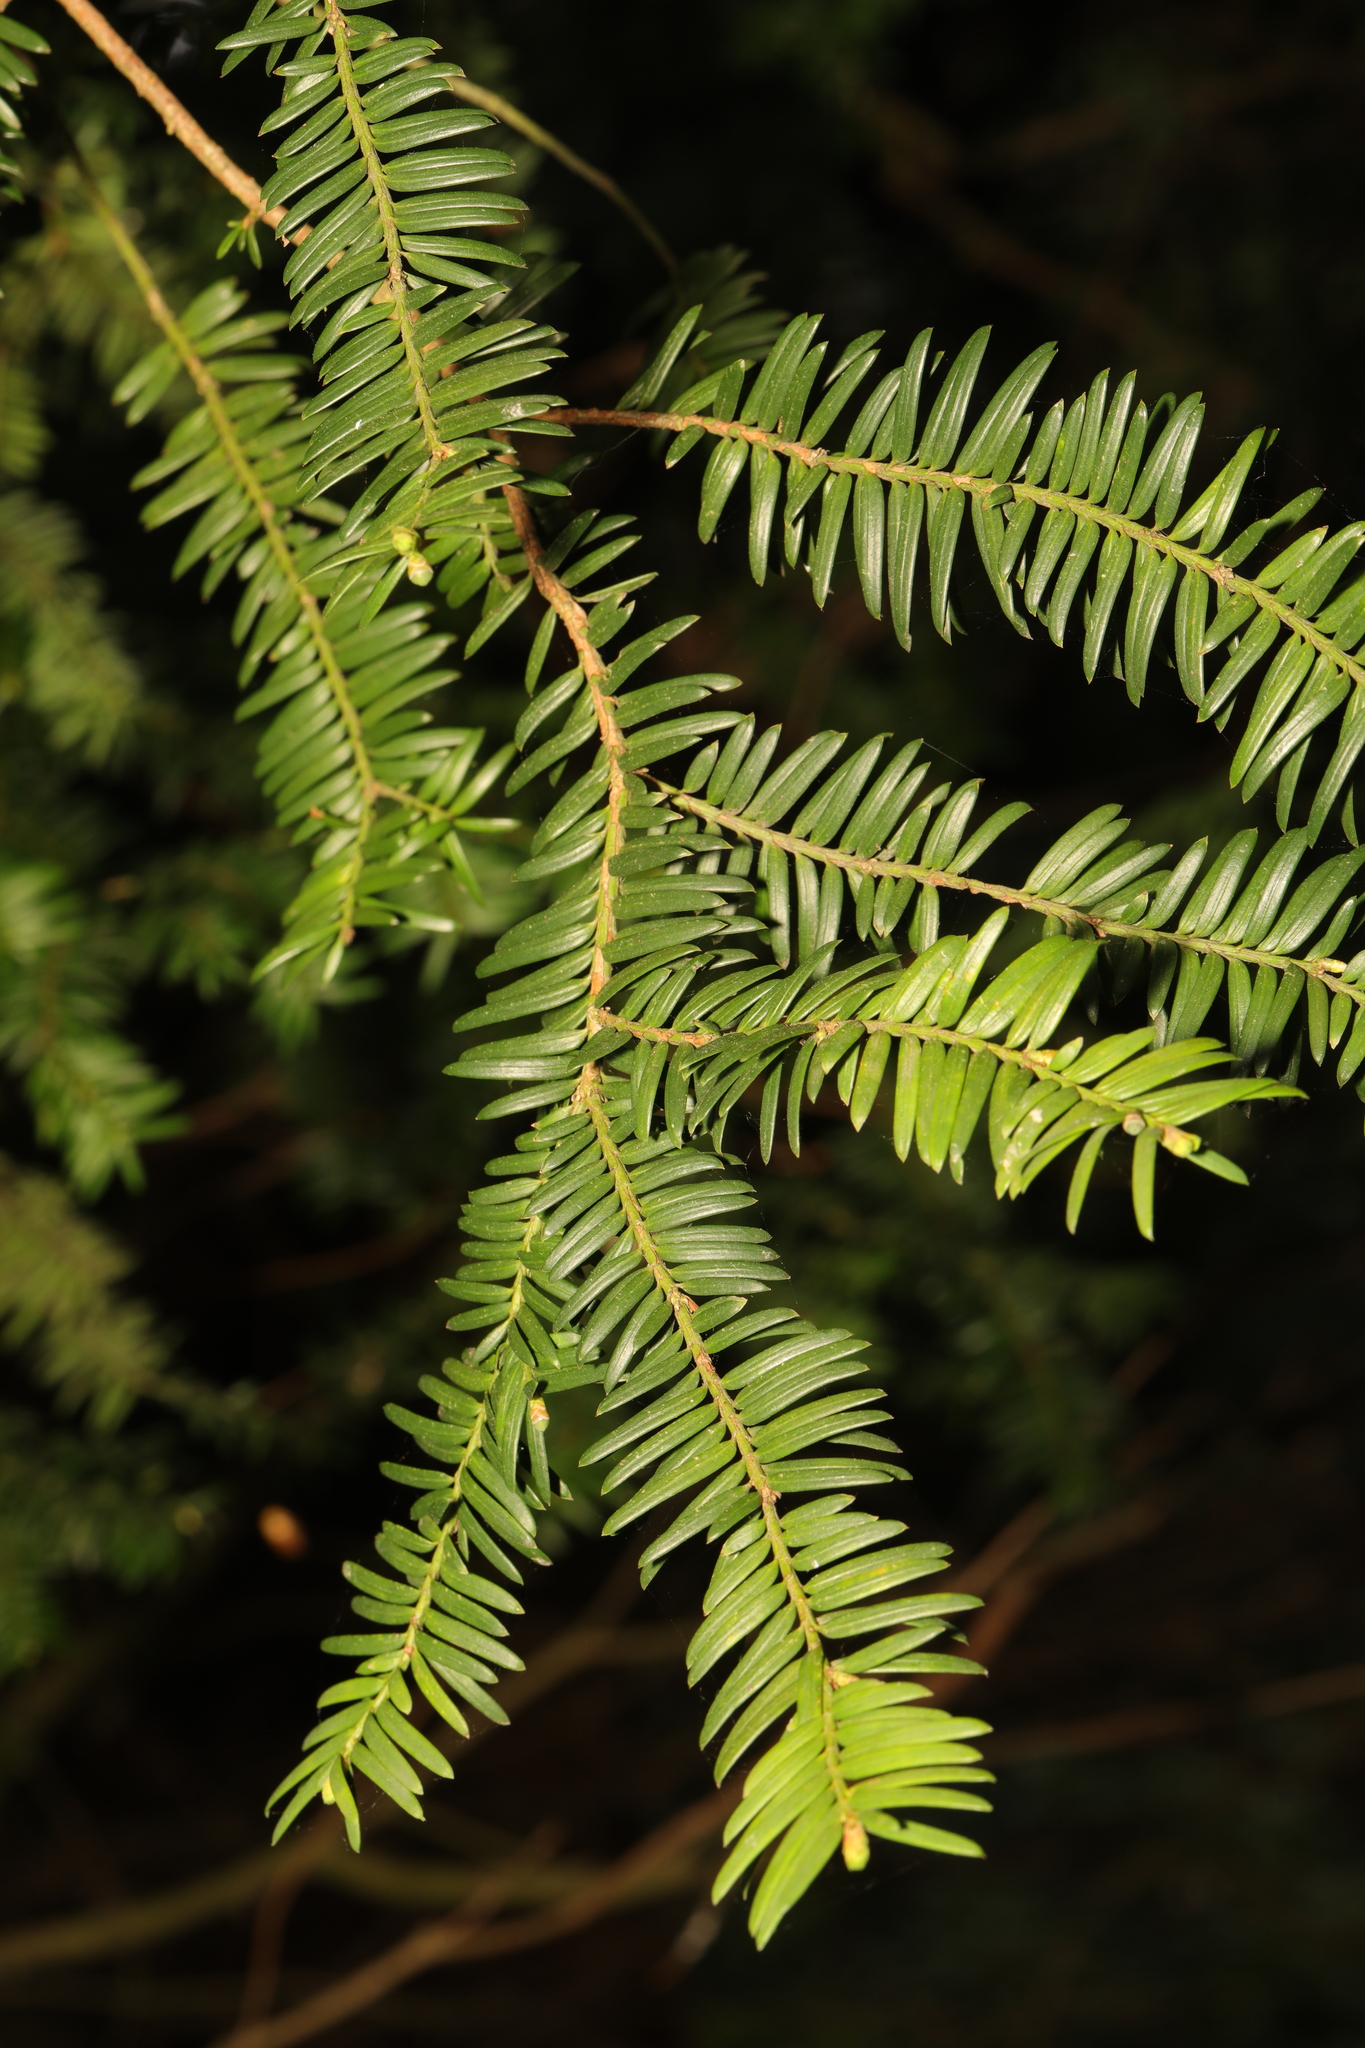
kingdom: Plantae
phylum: Tracheophyta
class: Pinopsida
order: Pinales
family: Taxaceae
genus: Taxus
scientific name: Taxus baccata
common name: Yew
